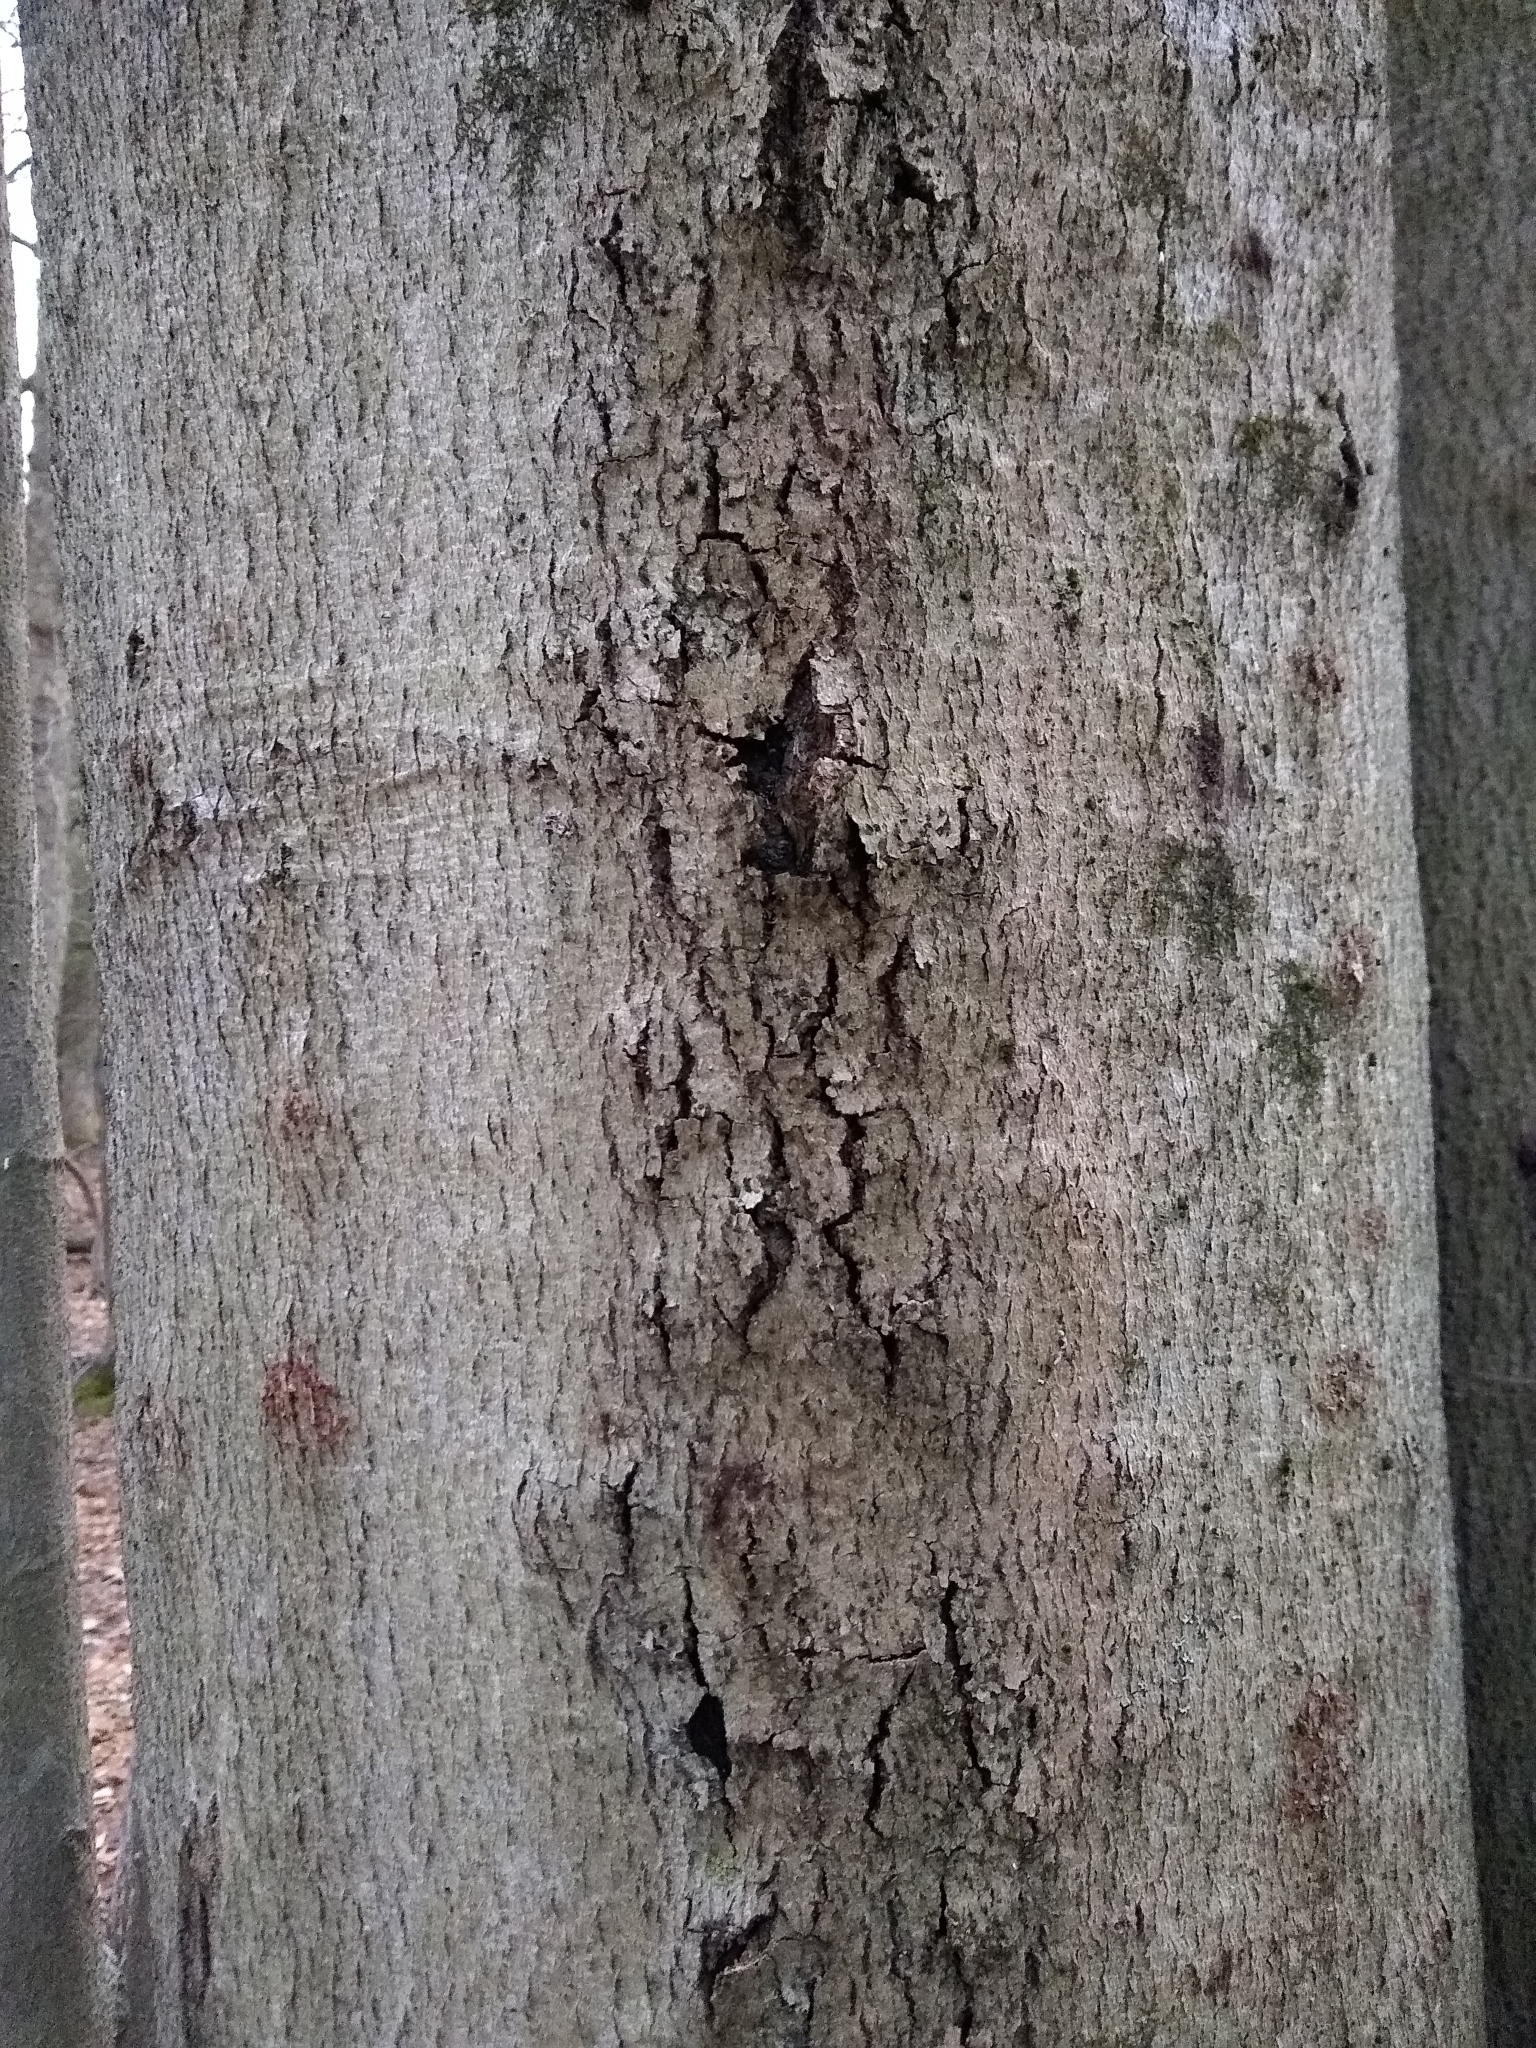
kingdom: Fungi
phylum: Ascomycota
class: Sordariomycetes
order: Hypocreales
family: Nectriaceae
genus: Neonectria
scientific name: Neonectria faginata
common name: Beech bark canker
